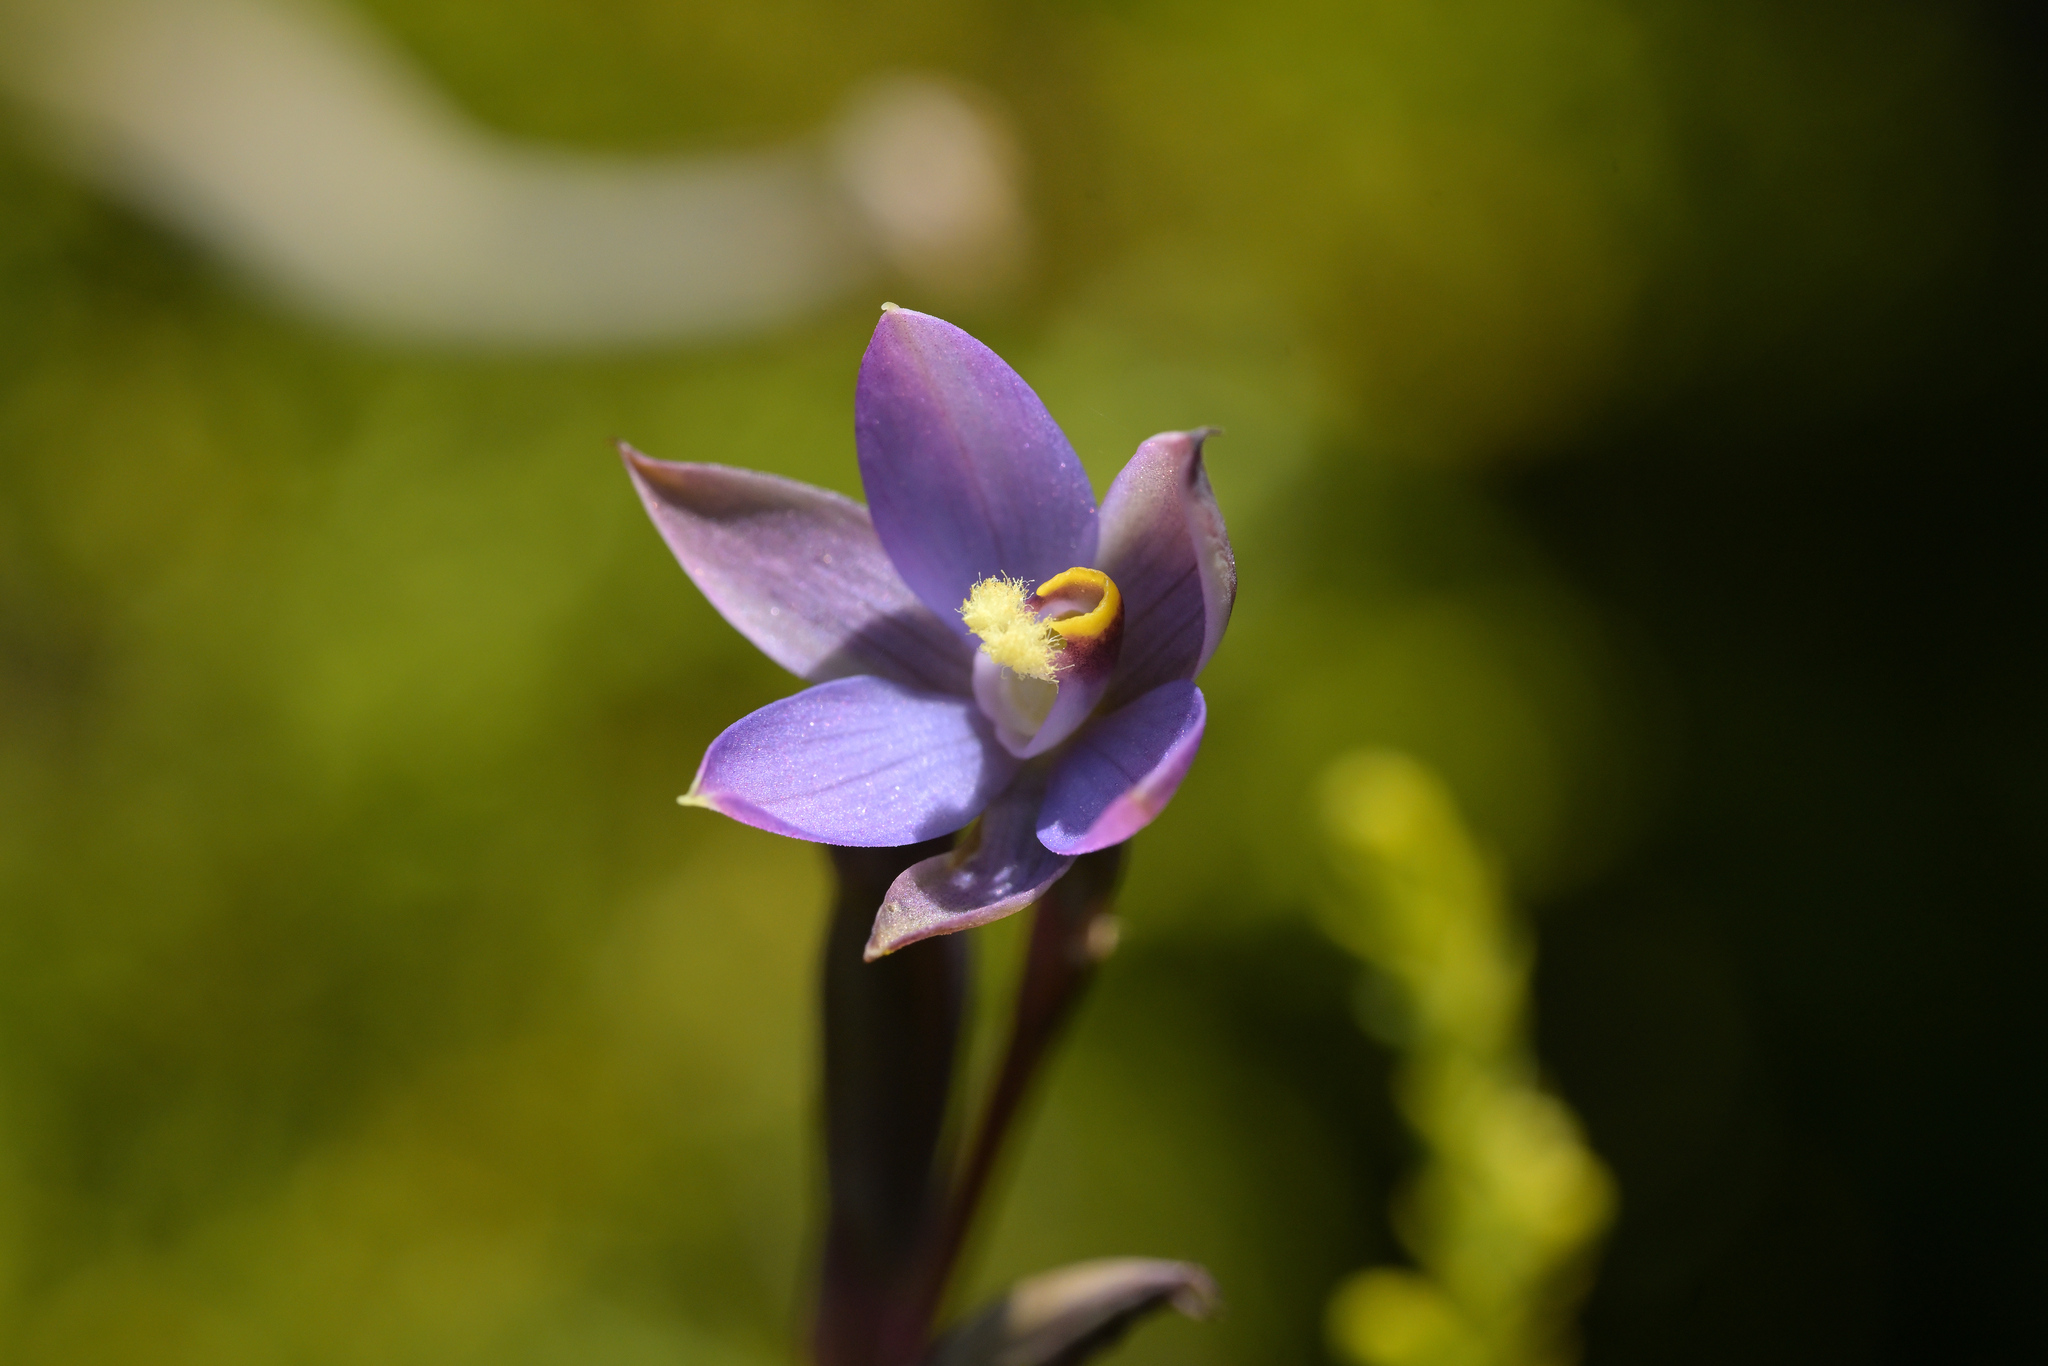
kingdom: Plantae
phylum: Tracheophyta
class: Liliopsida
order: Asparagales
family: Orchidaceae
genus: Thelymitra
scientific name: Thelymitra hatchii
